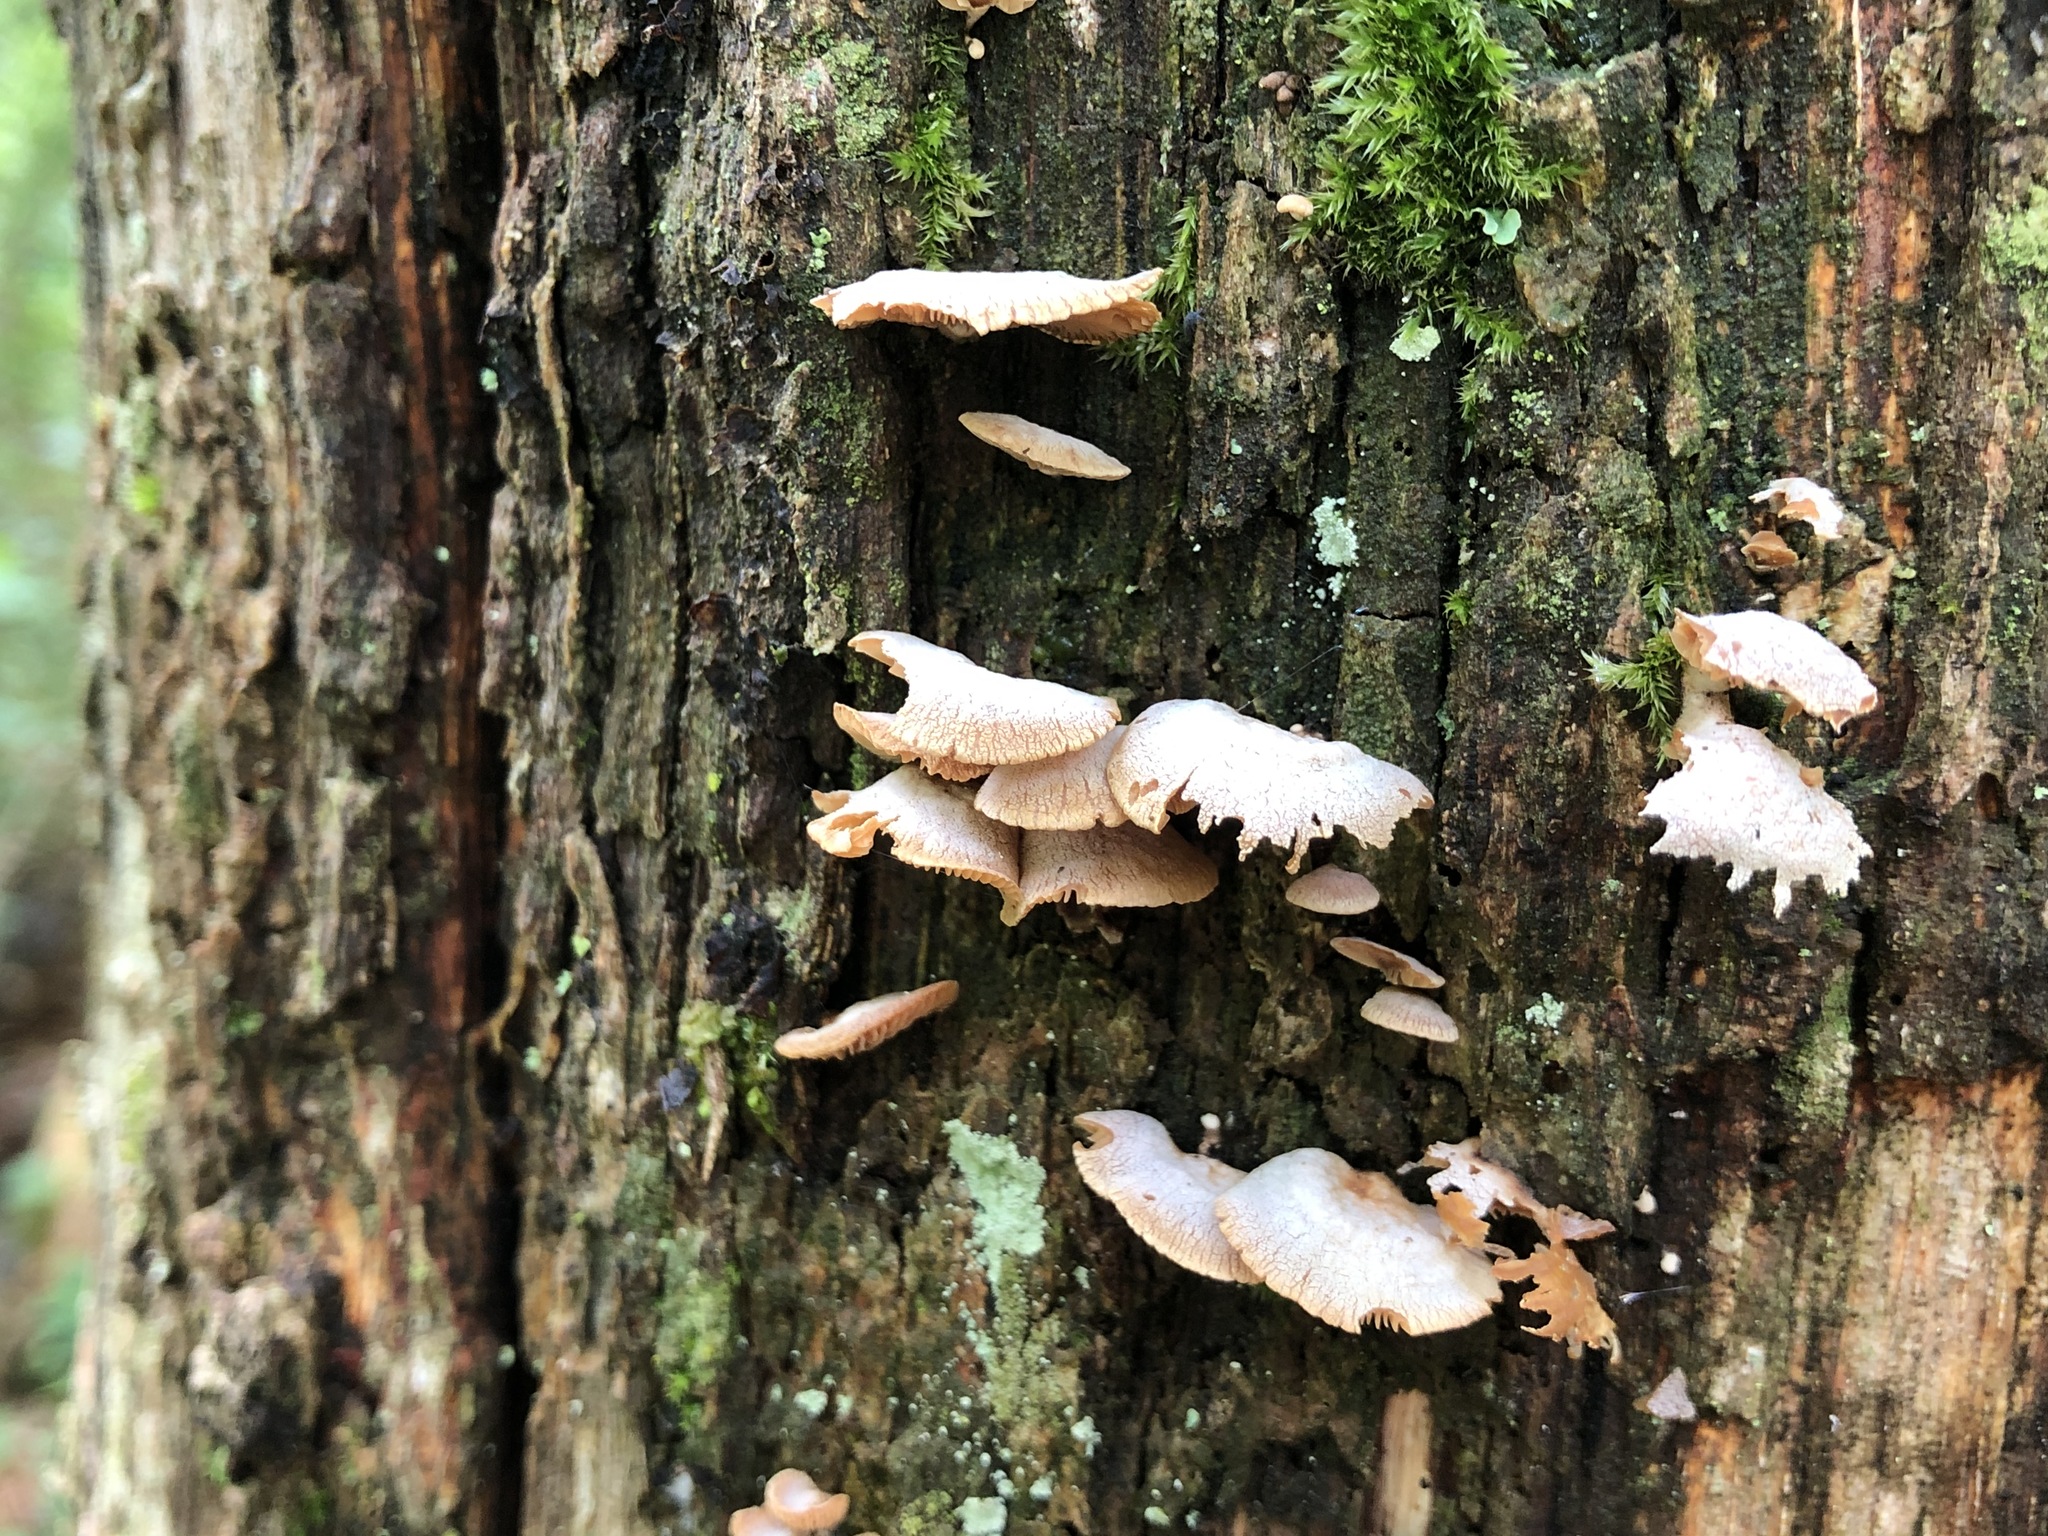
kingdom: Fungi
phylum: Basidiomycota
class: Agaricomycetes
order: Agaricales
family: Mycenaceae
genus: Panellus
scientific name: Panellus stipticus
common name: Bitter oysterling
